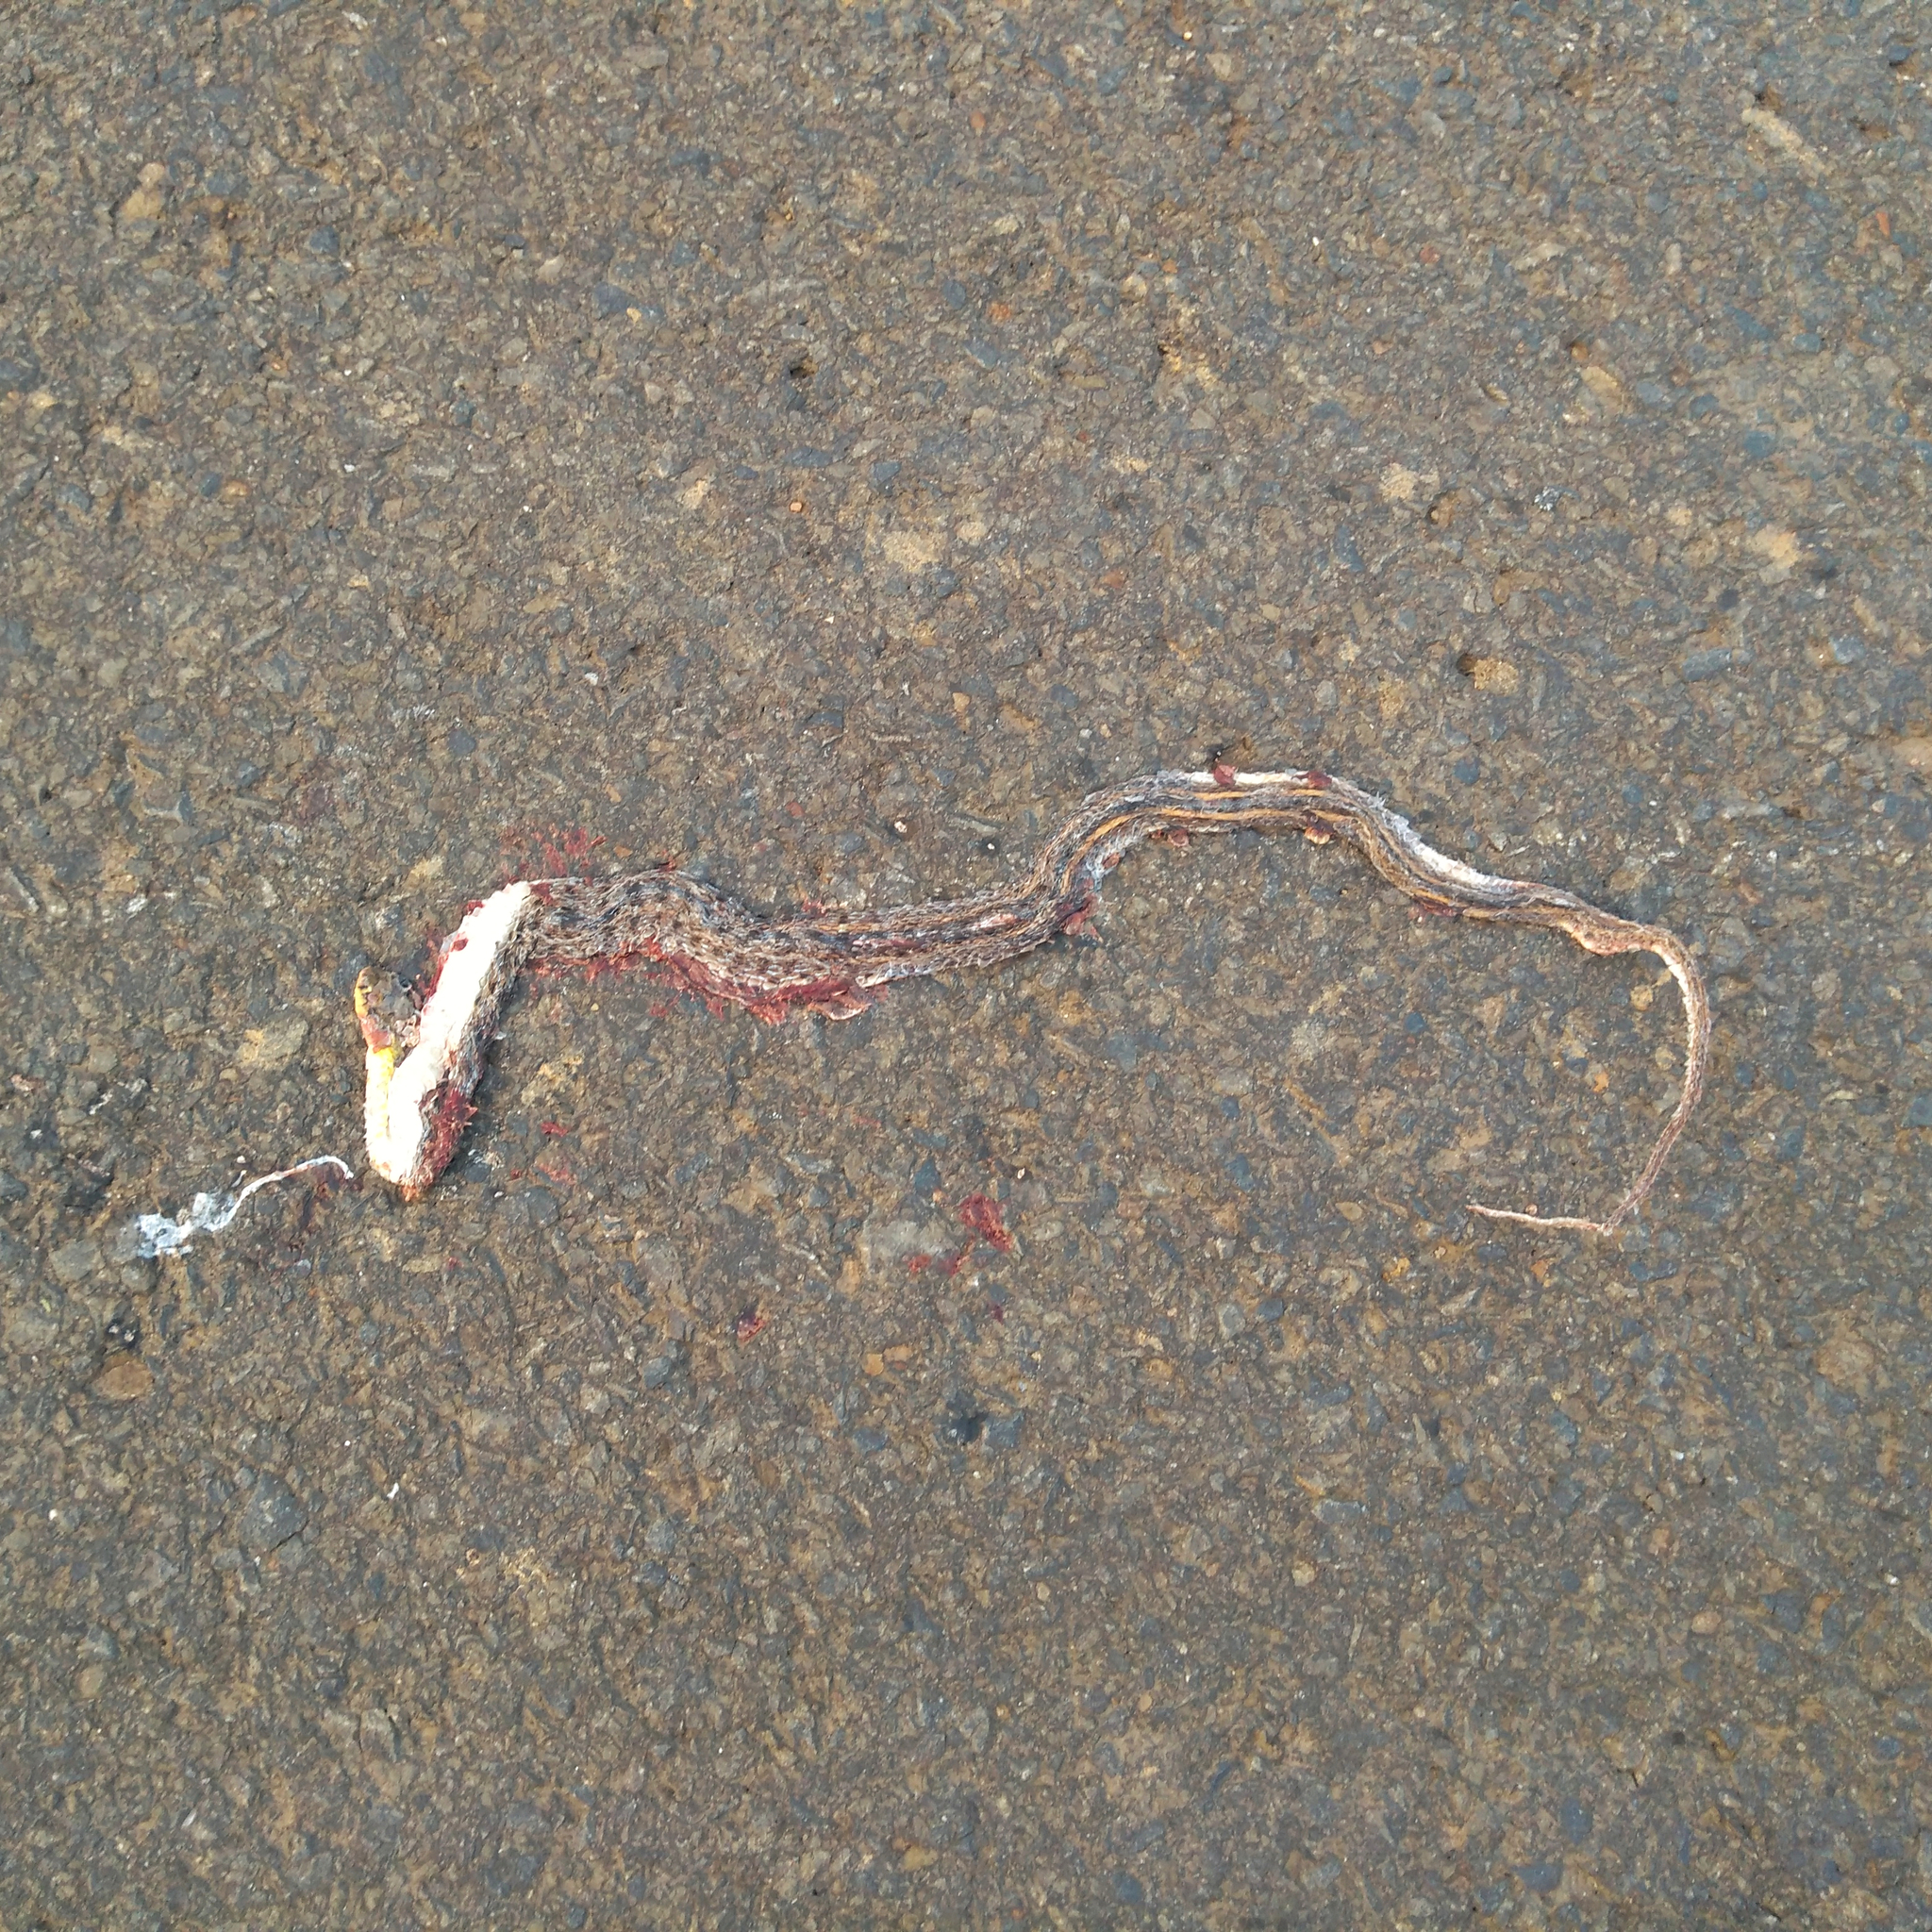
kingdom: Animalia
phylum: Chordata
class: Squamata
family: Colubridae
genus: Amphiesma
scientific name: Amphiesma stolatum
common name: Buff striped keelback
